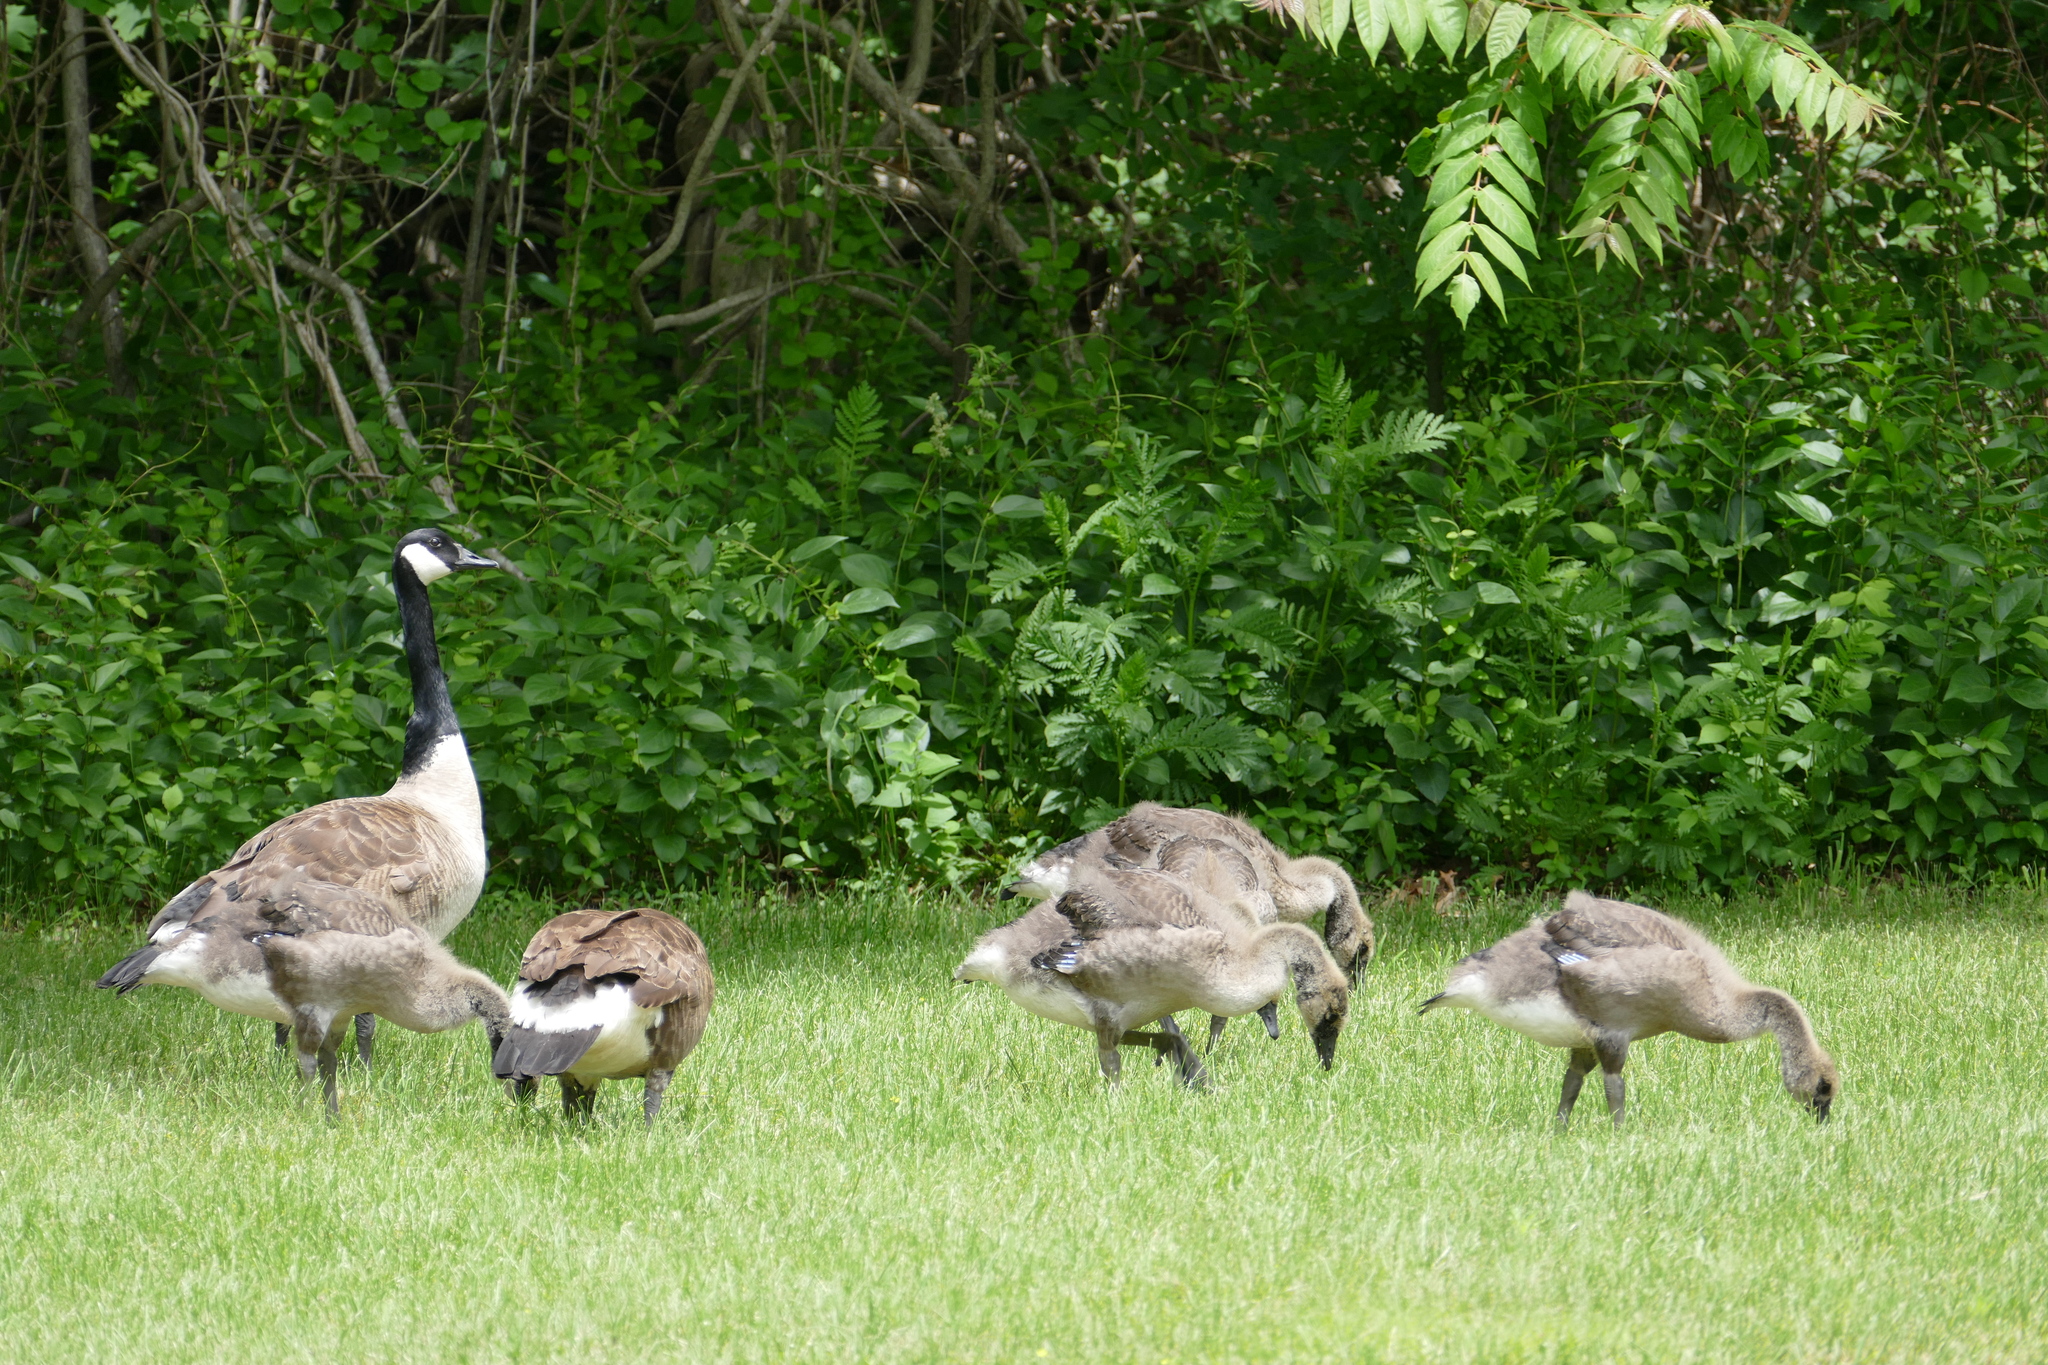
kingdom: Animalia
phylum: Chordata
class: Aves
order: Anseriformes
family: Anatidae
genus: Branta
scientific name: Branta canadensis
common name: Canada goose
